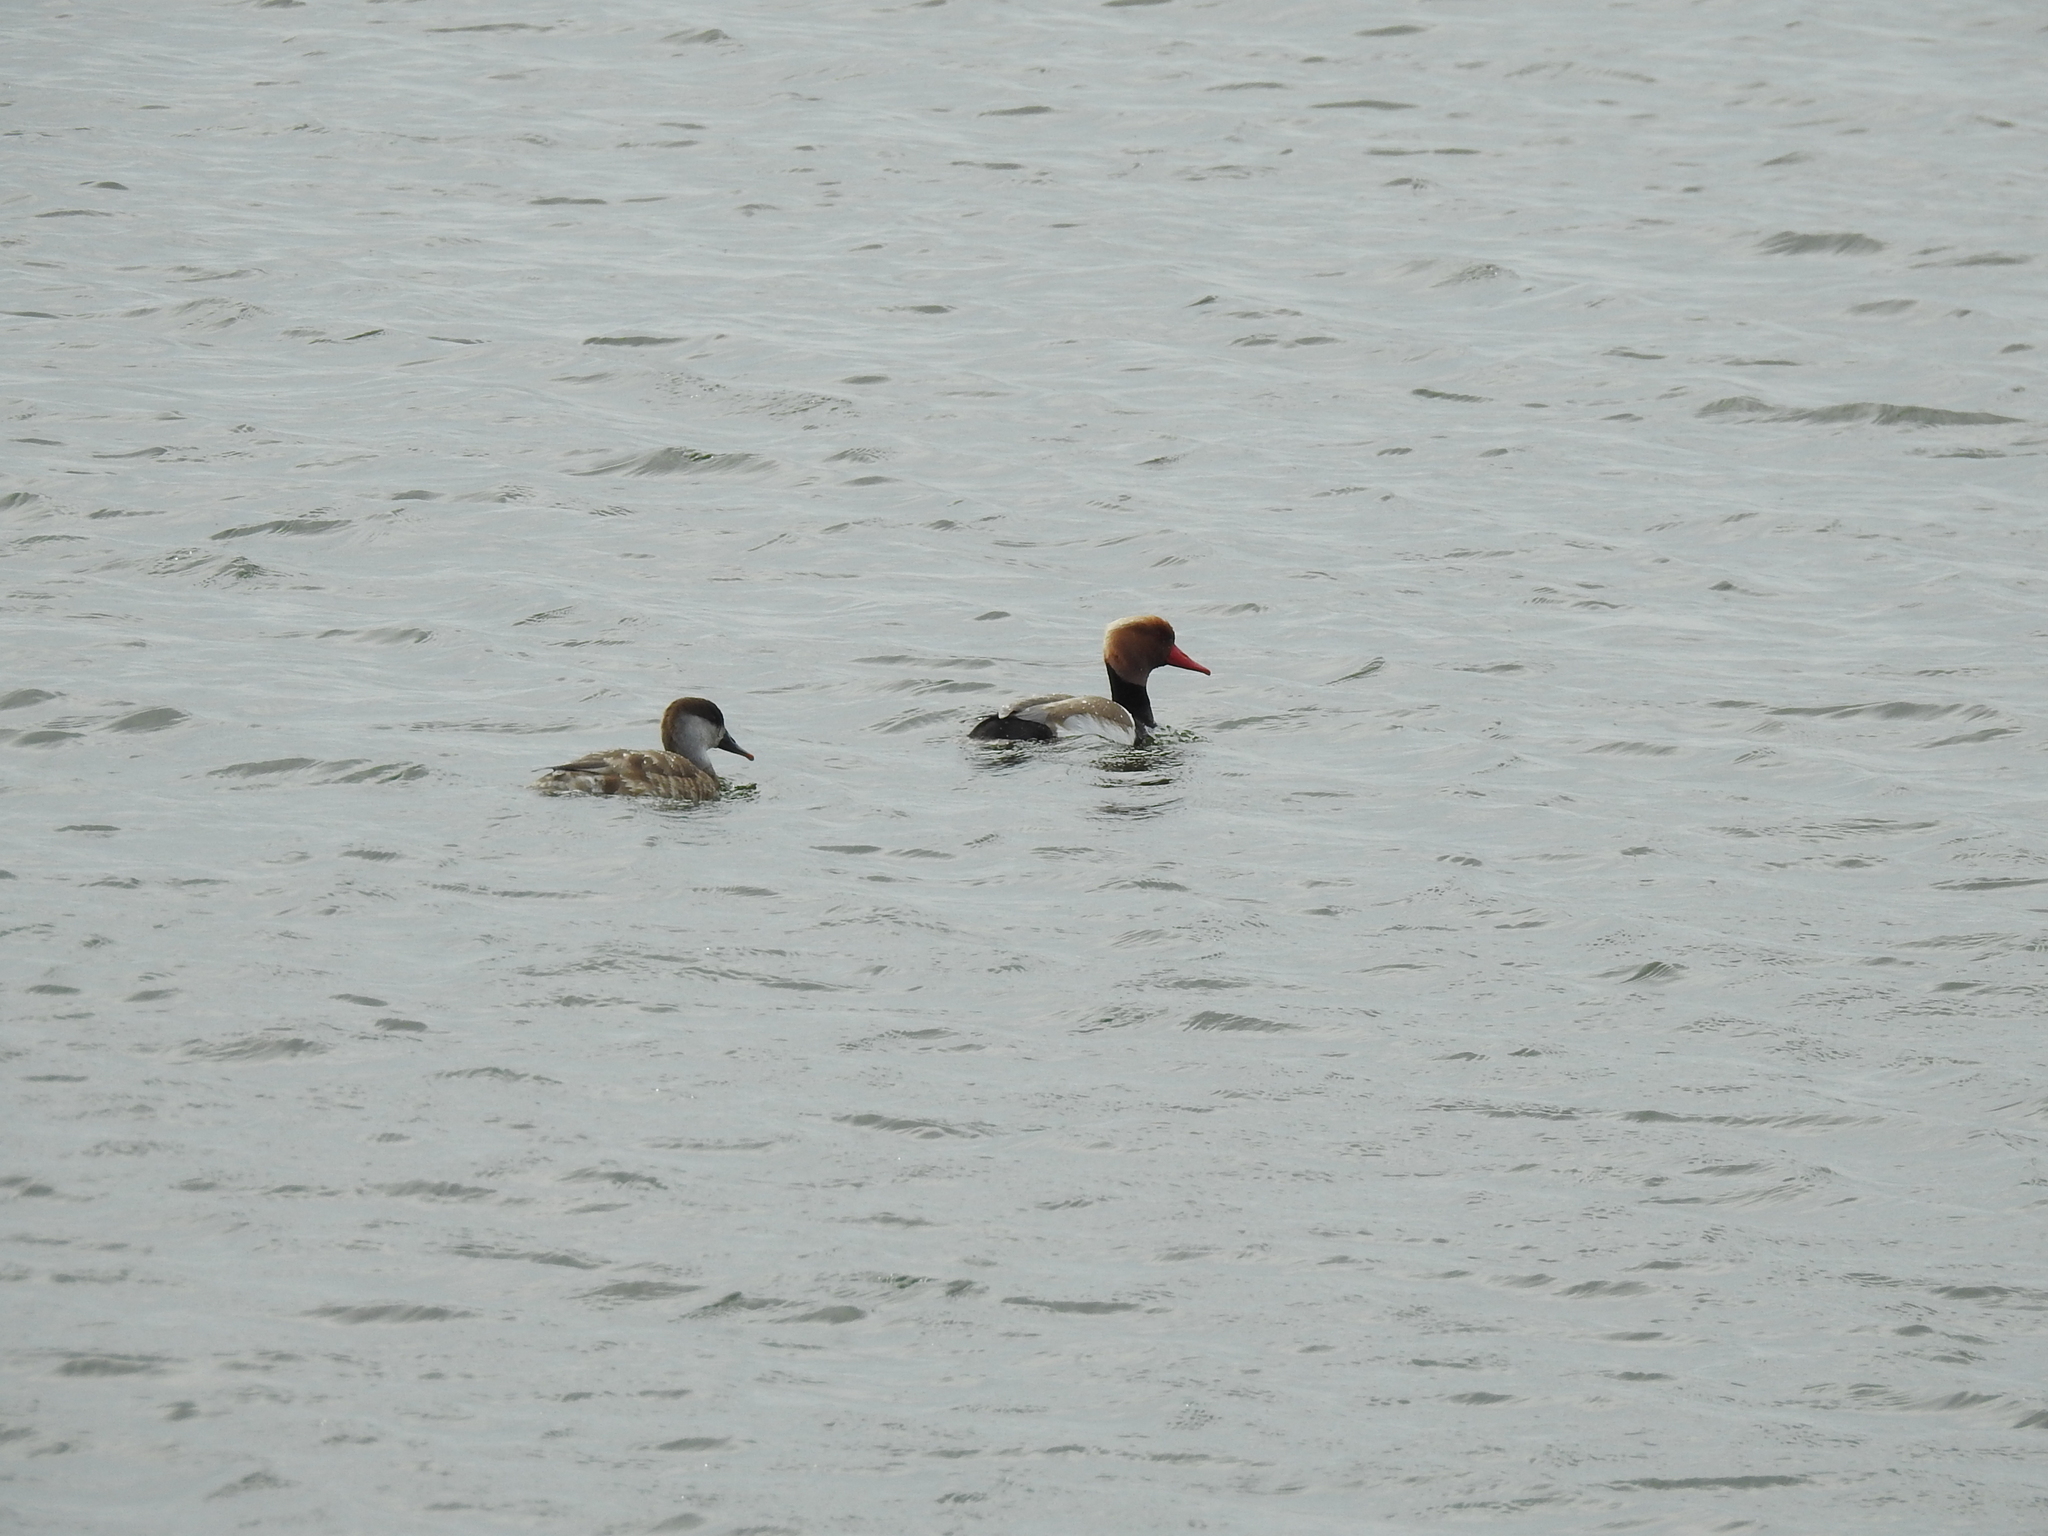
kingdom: Animalia
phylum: Chordata
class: Aves
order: Anseriformes
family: Anatidae
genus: Netta
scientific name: Netta rufina
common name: Red-crested pochard
